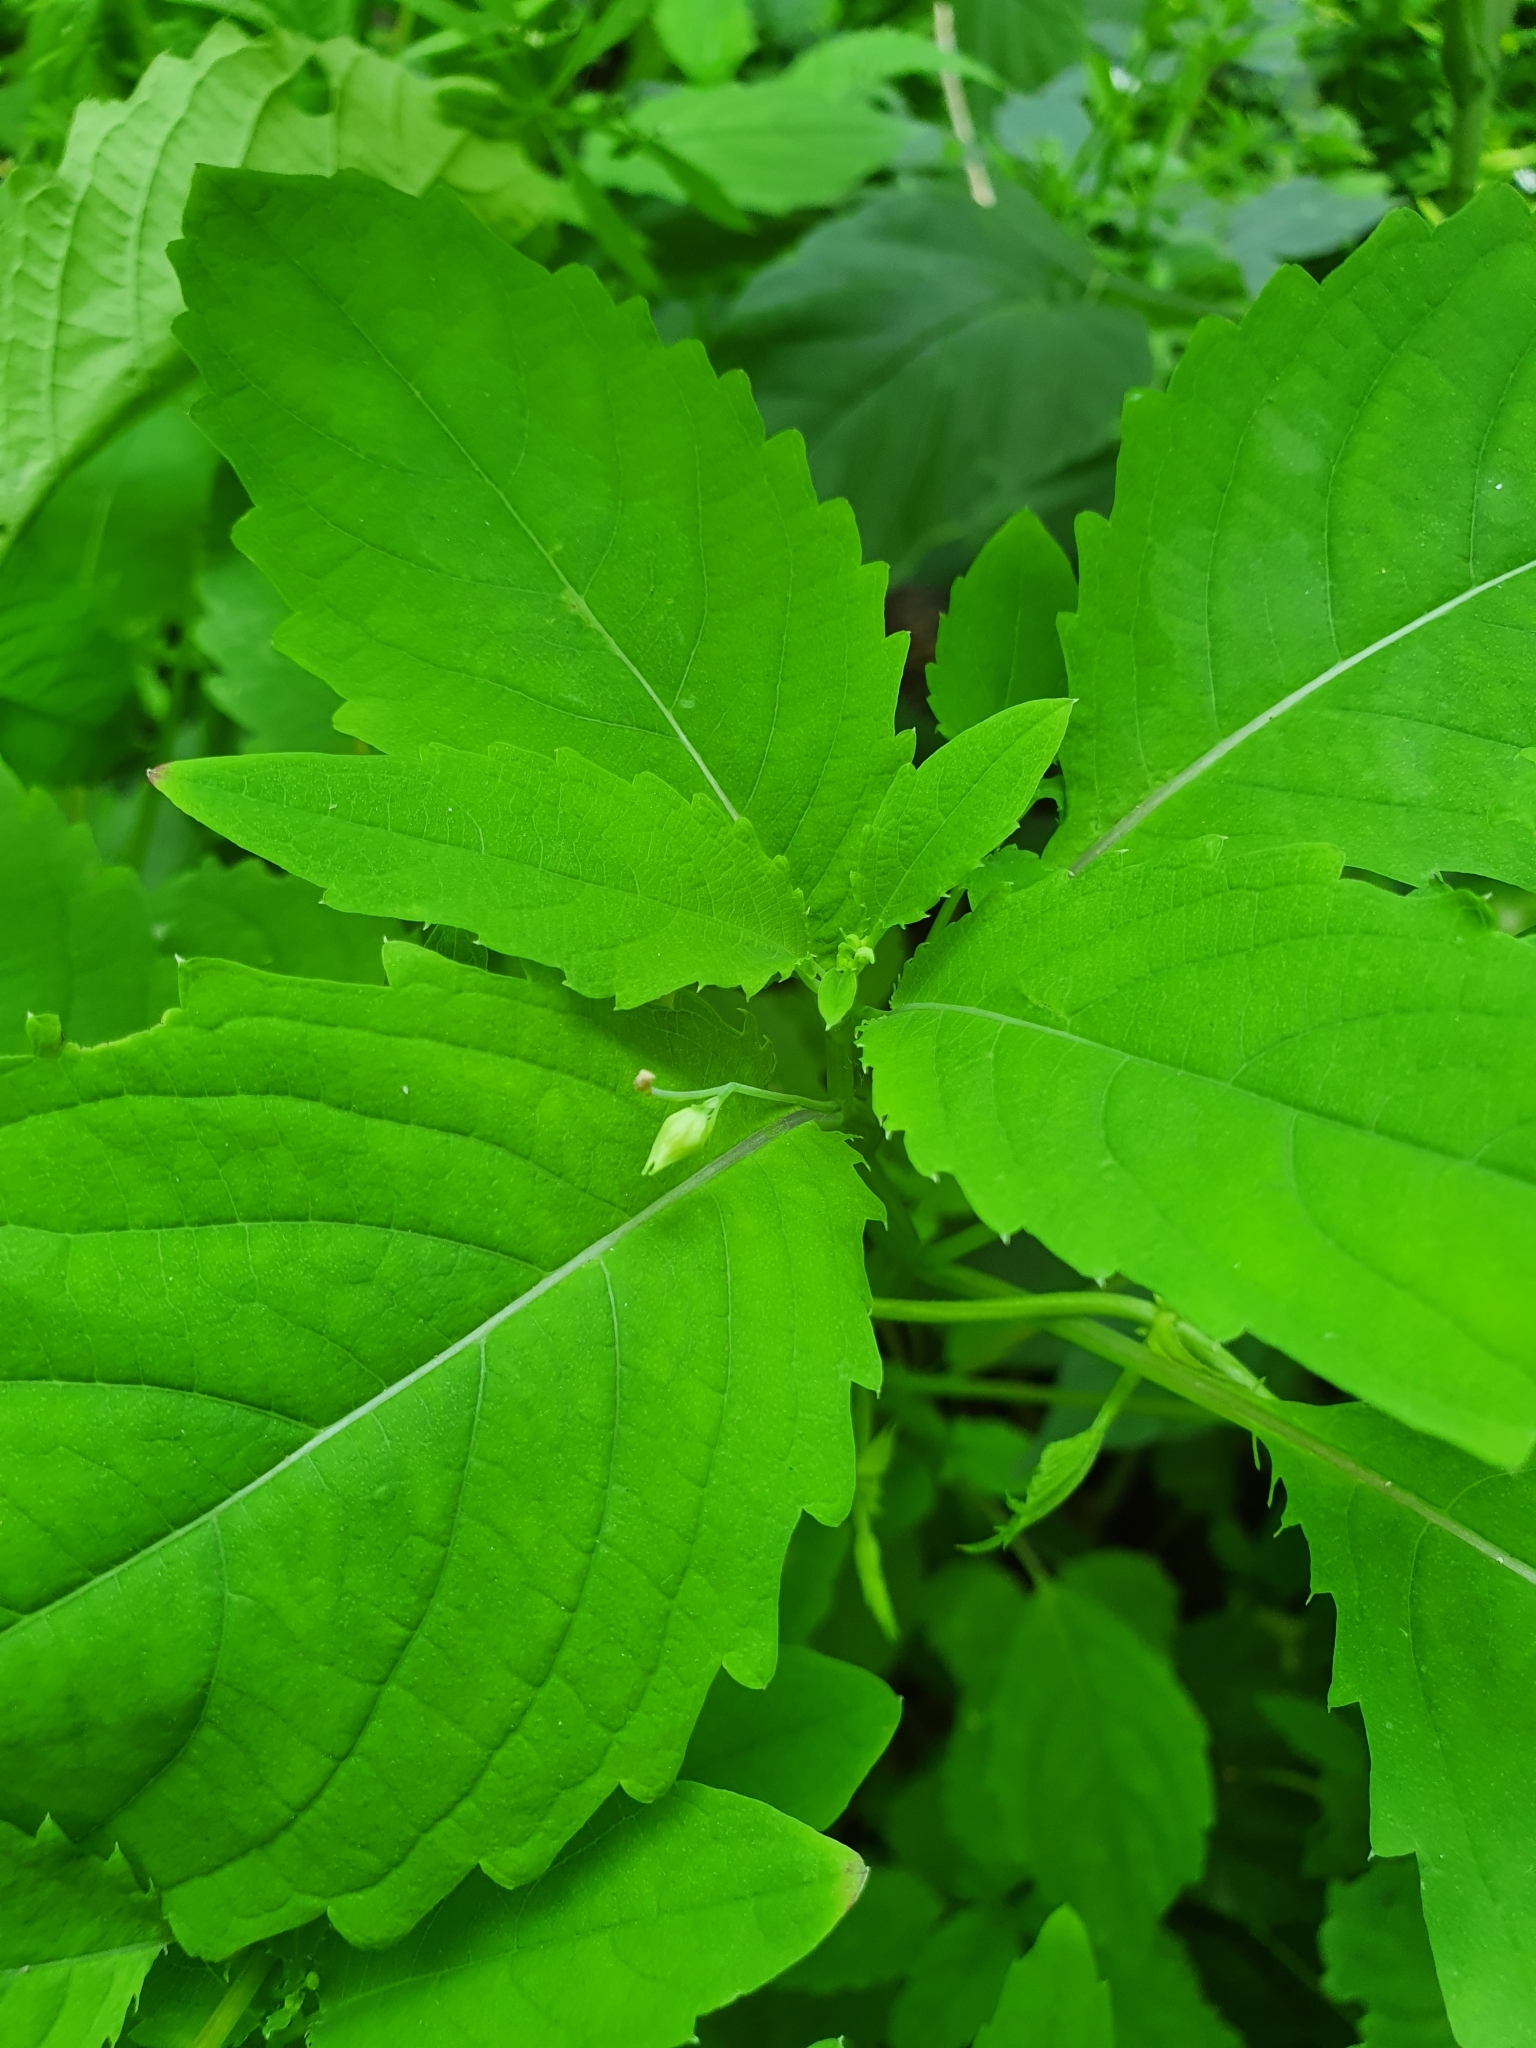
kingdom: Plantae
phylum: Tracheophyta
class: Magnoliopsida
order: Ericales
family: Balsaminaceae
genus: Impatiens
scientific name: Impatiens noli-tangere
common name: Touch-me-not balsam
